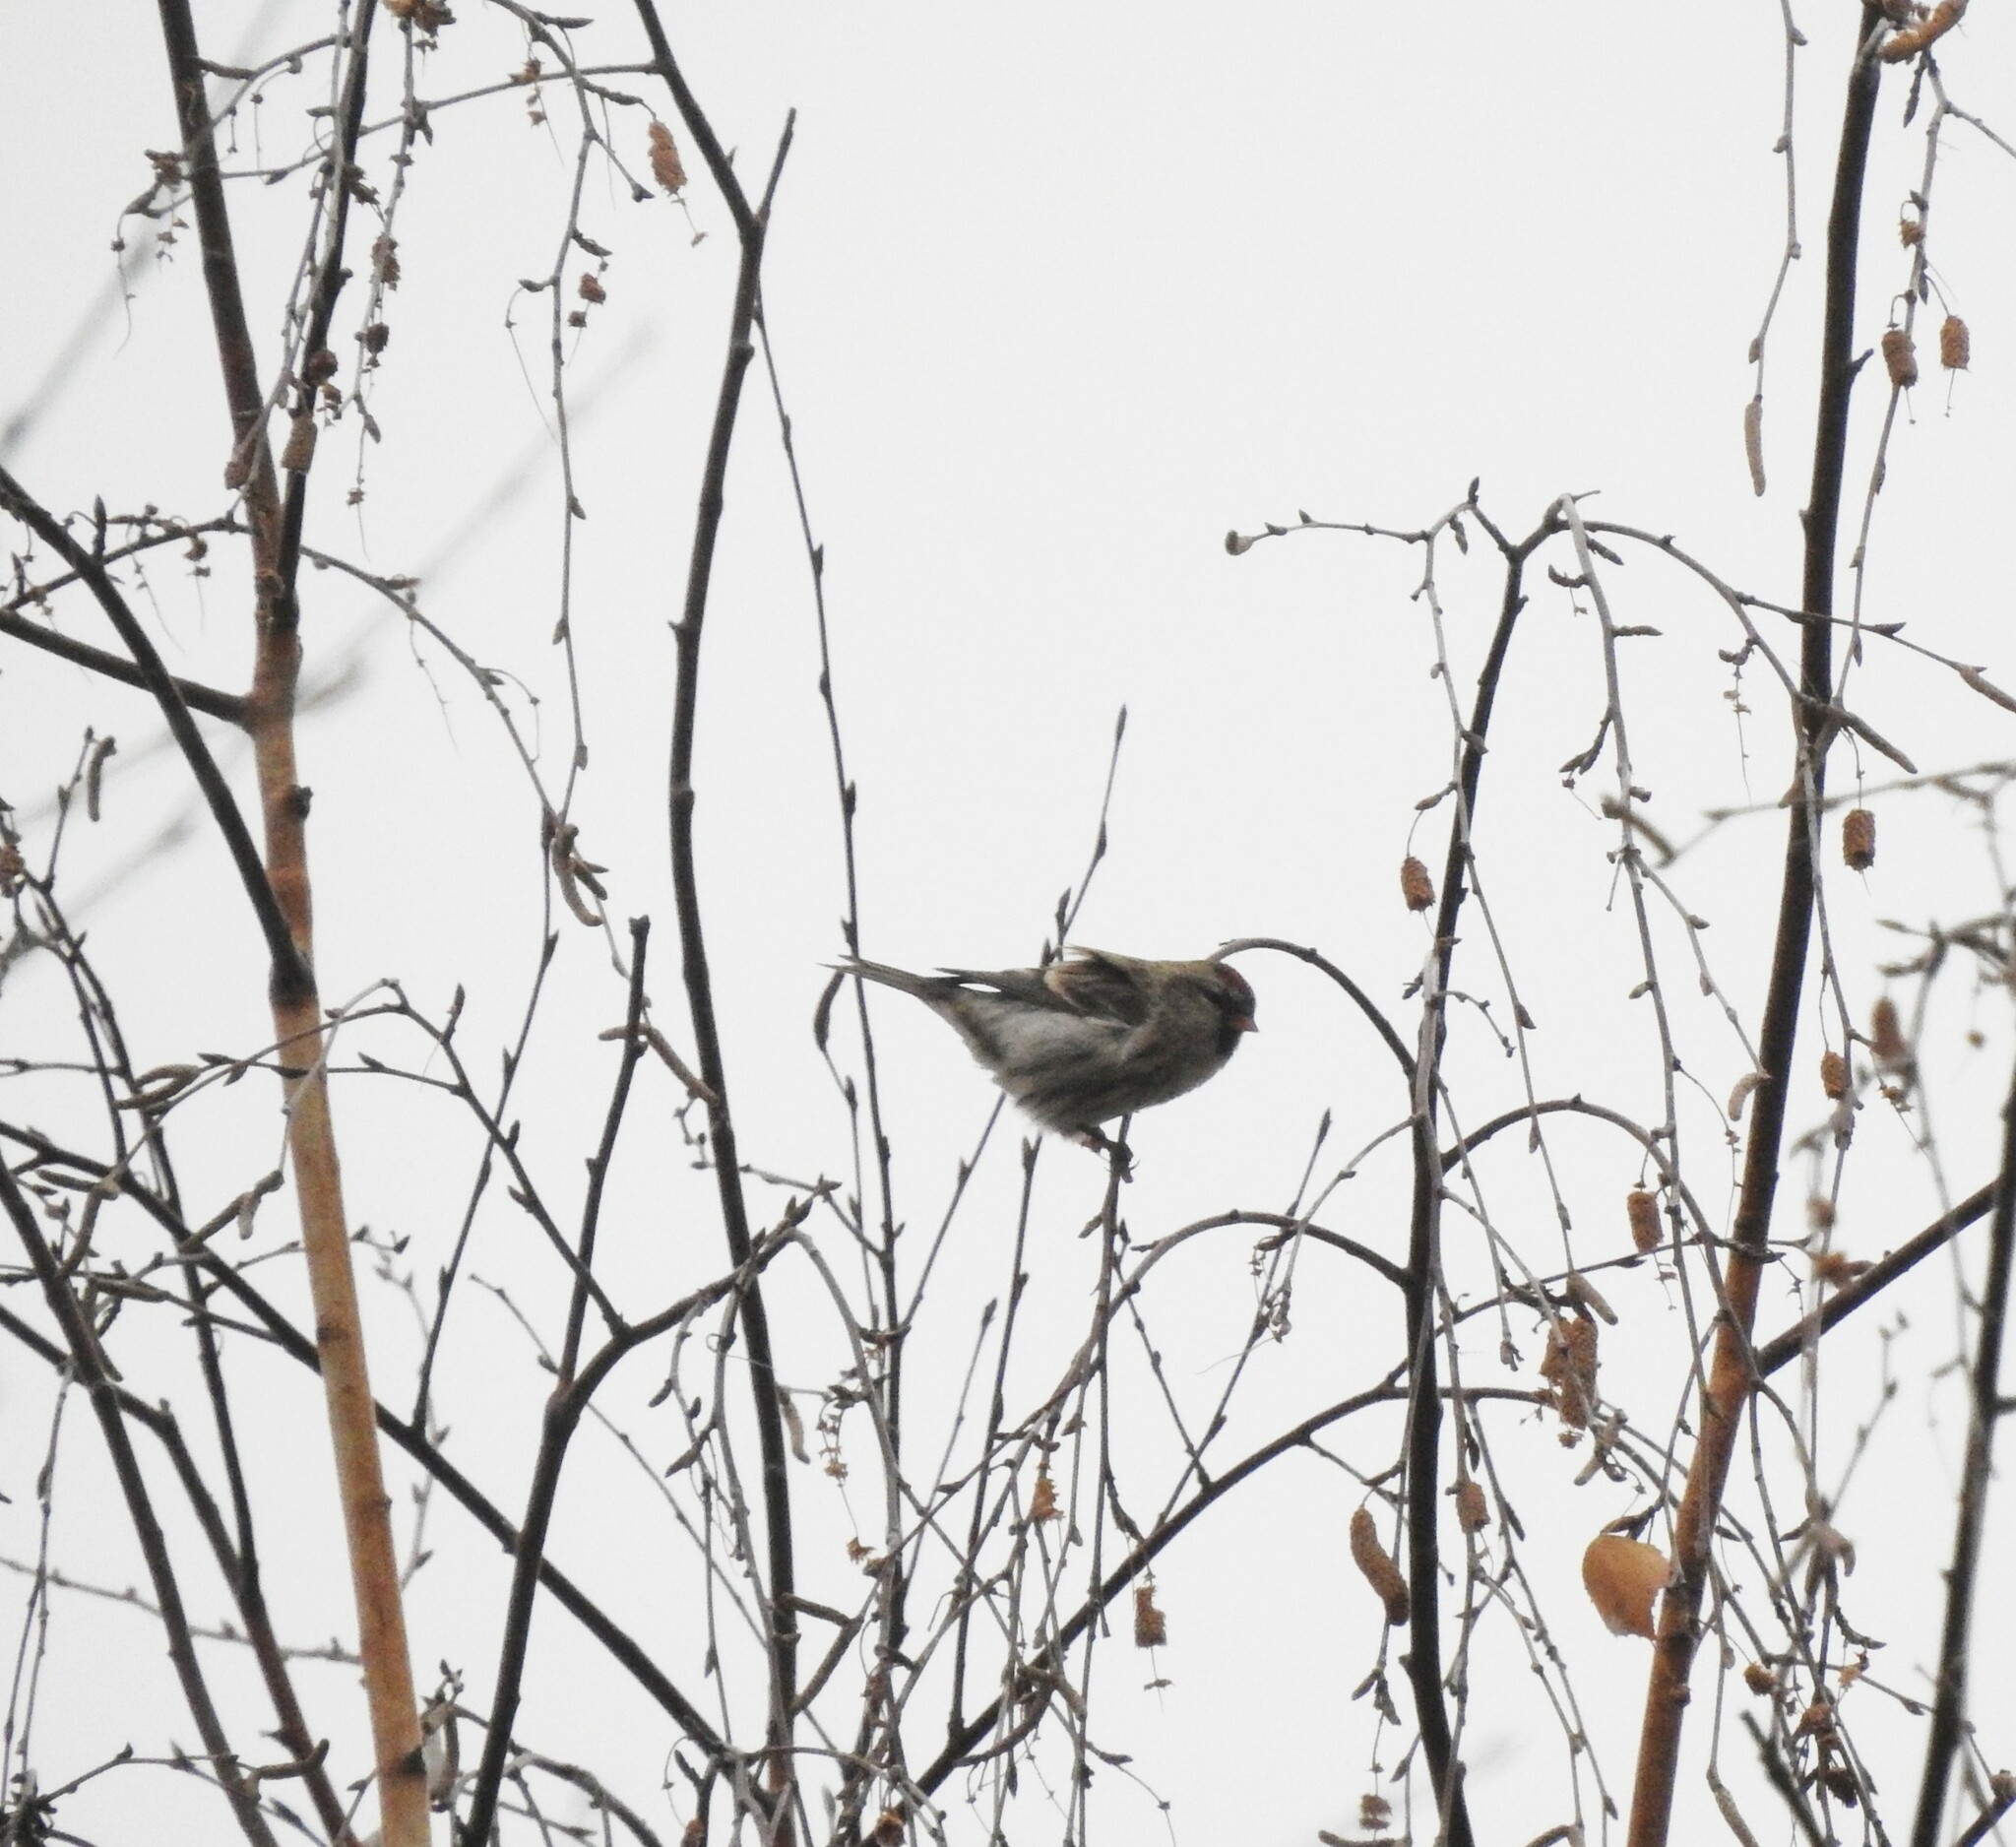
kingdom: Animalia
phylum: Chordata
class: Aves
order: Passeriformes
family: Fringillidae
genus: Acanthis
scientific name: Acanthis flammea
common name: Common redpoll
